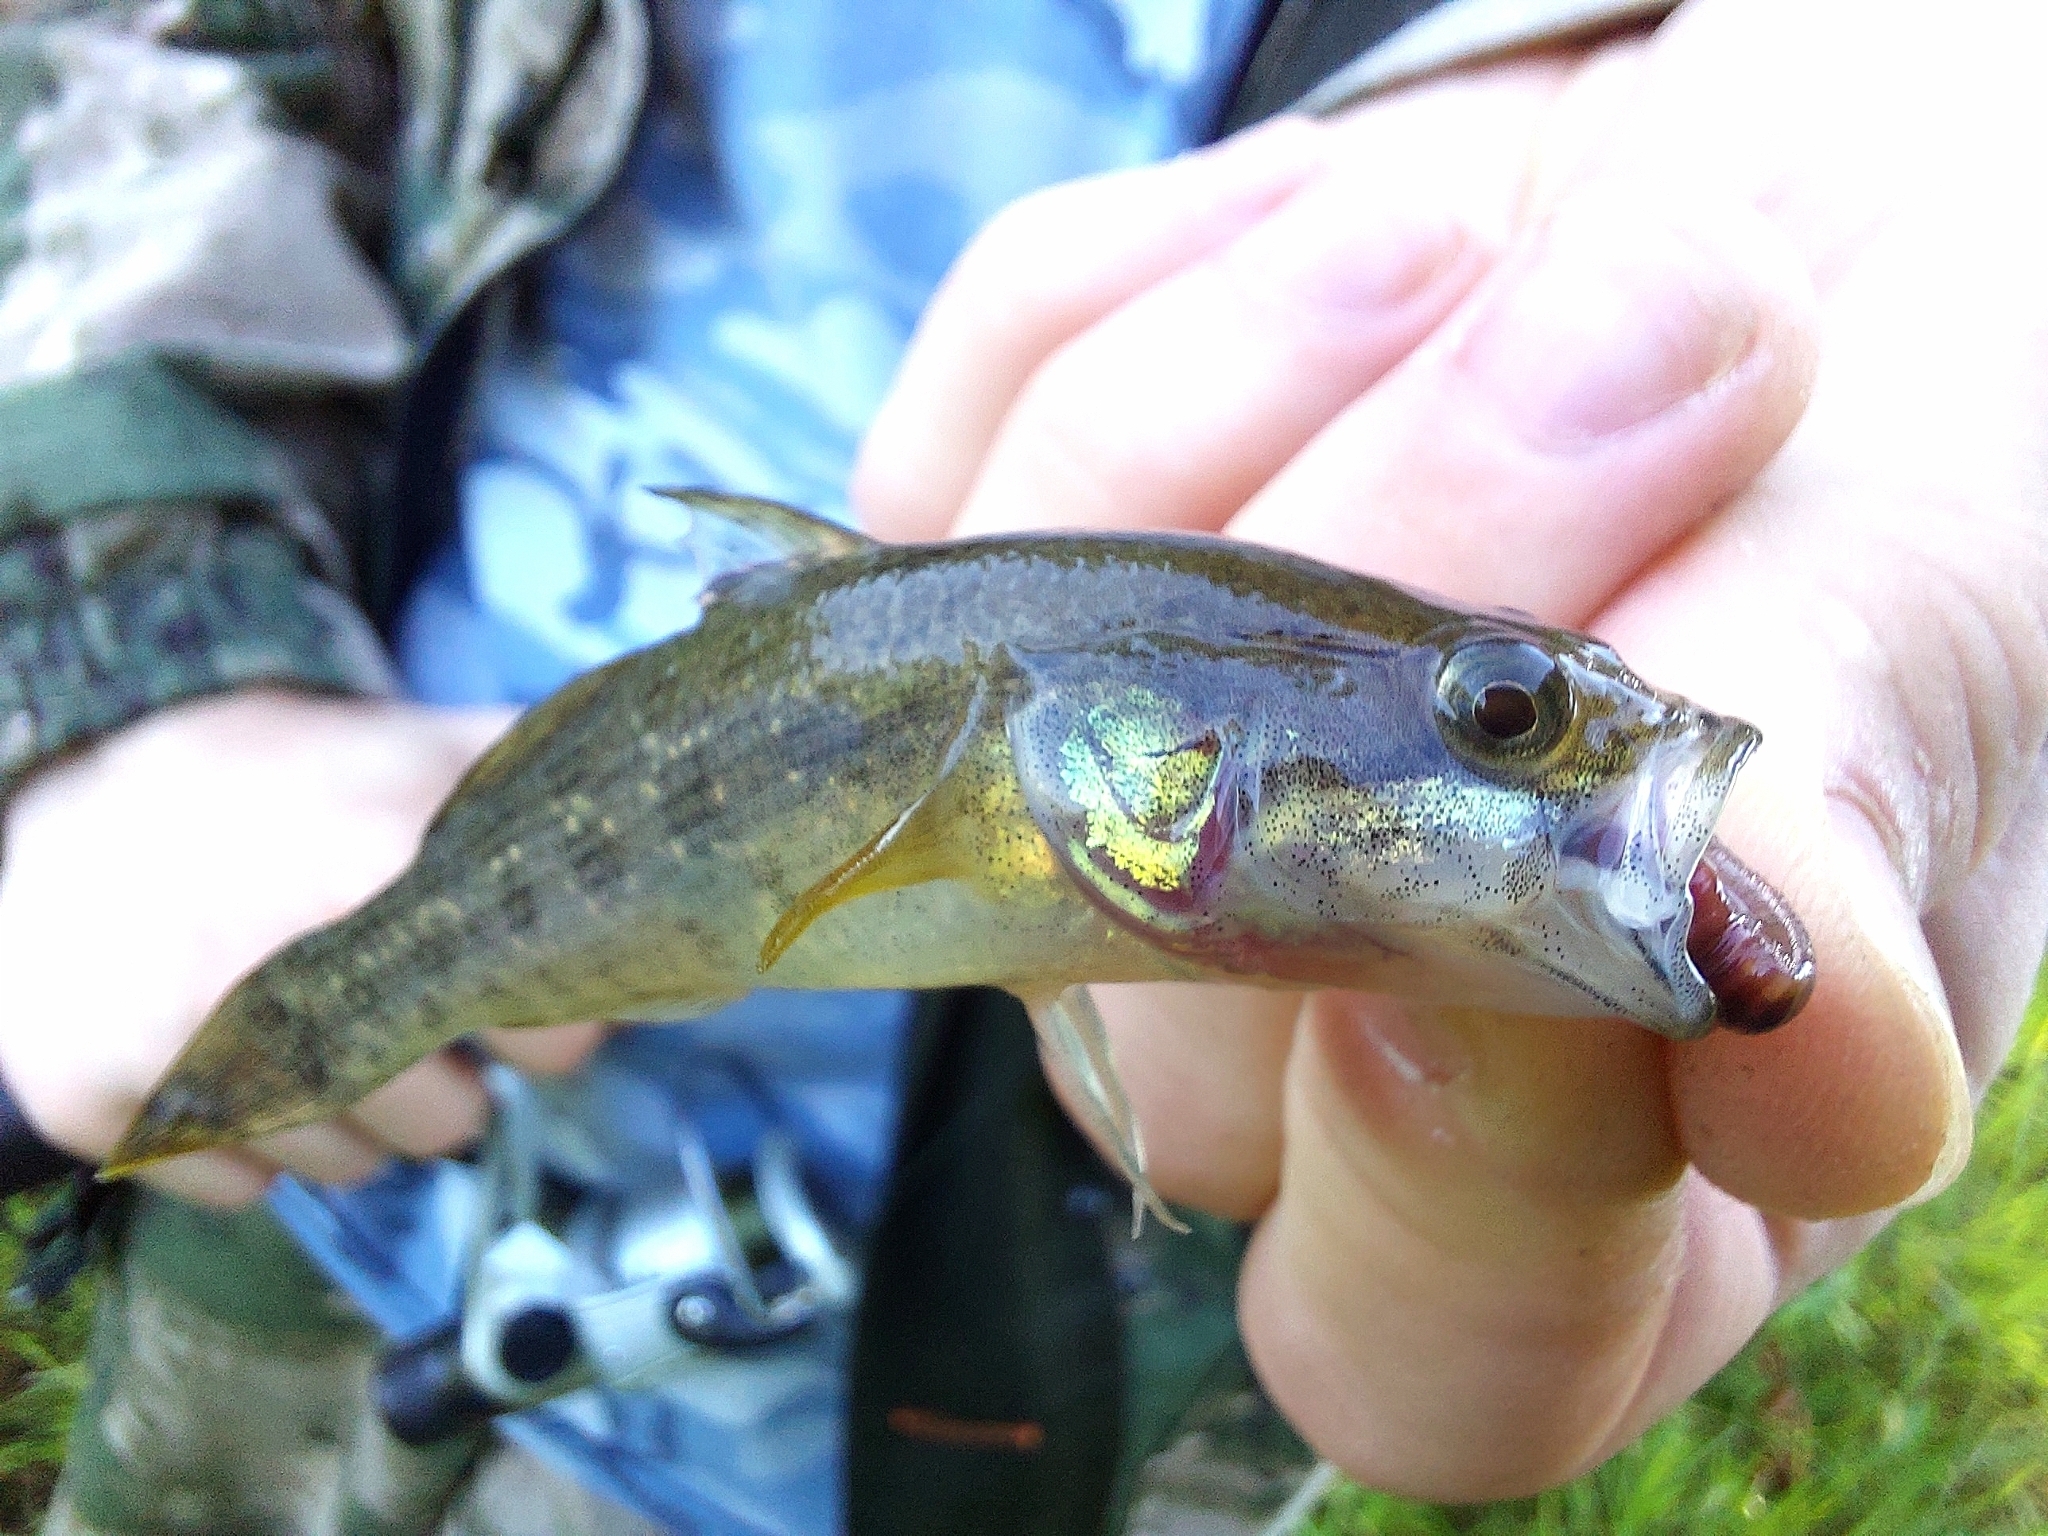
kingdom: Animalia
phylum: Chordata
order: Perciformes
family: Odontobutidae
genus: Perccottus
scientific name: Perccottus glenii
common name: Amur sleeper
